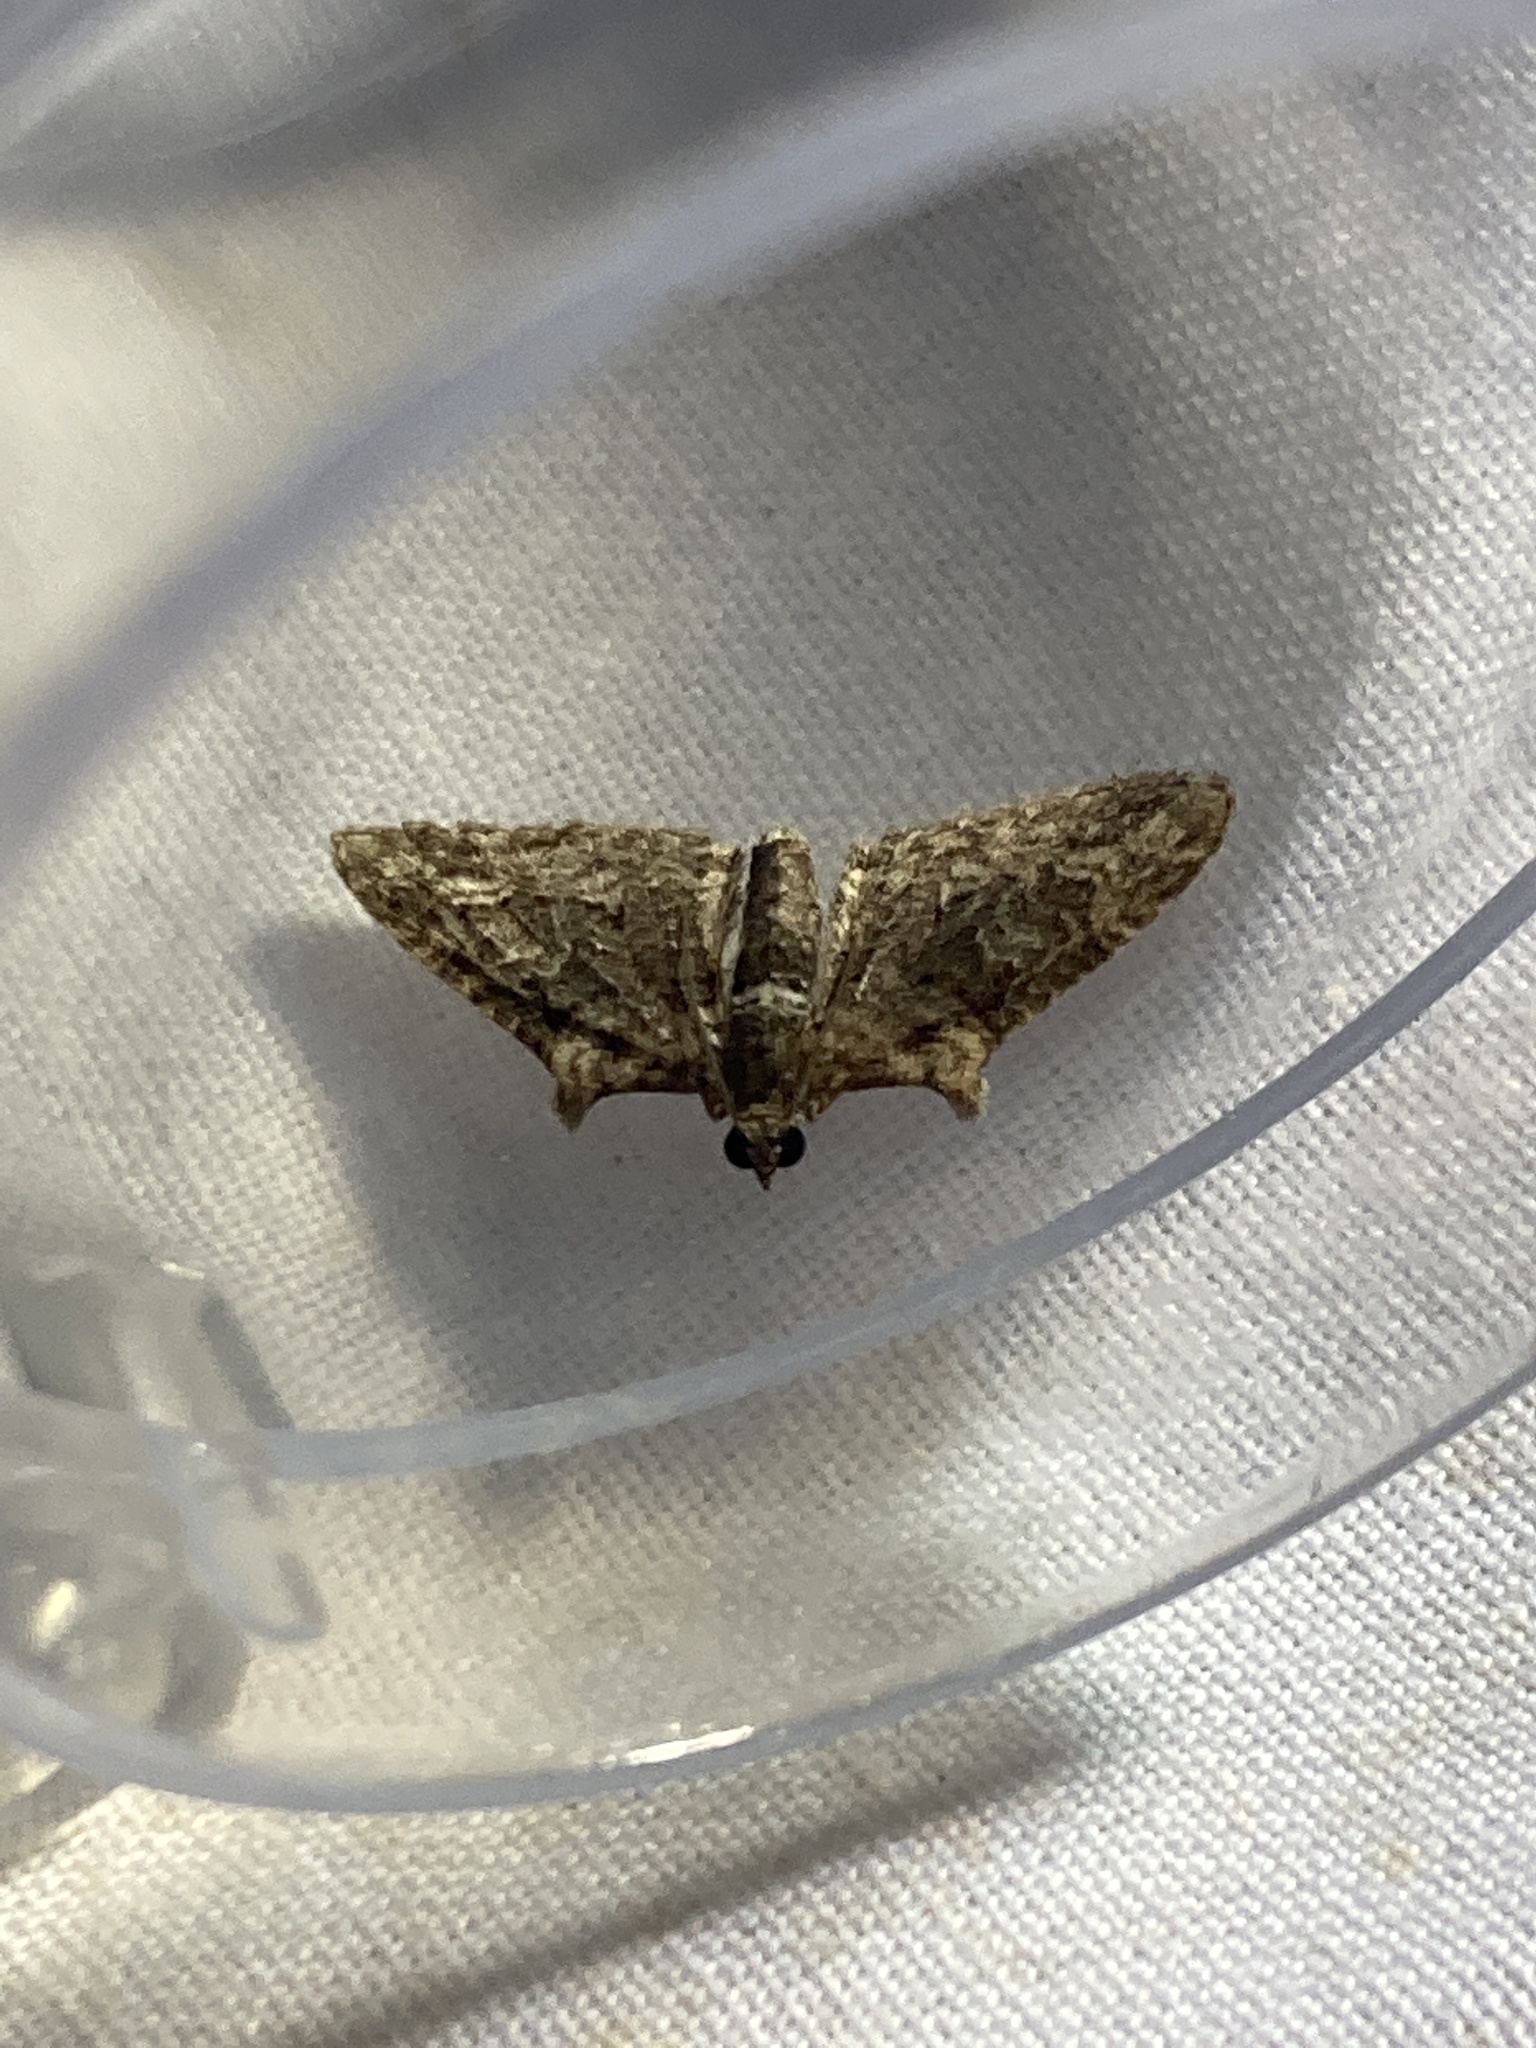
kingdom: Animalia
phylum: Arthropoda
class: Insecta
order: Lepidoptera
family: Geometridae
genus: Phrissogonus
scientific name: Phrissogonus laticostata
